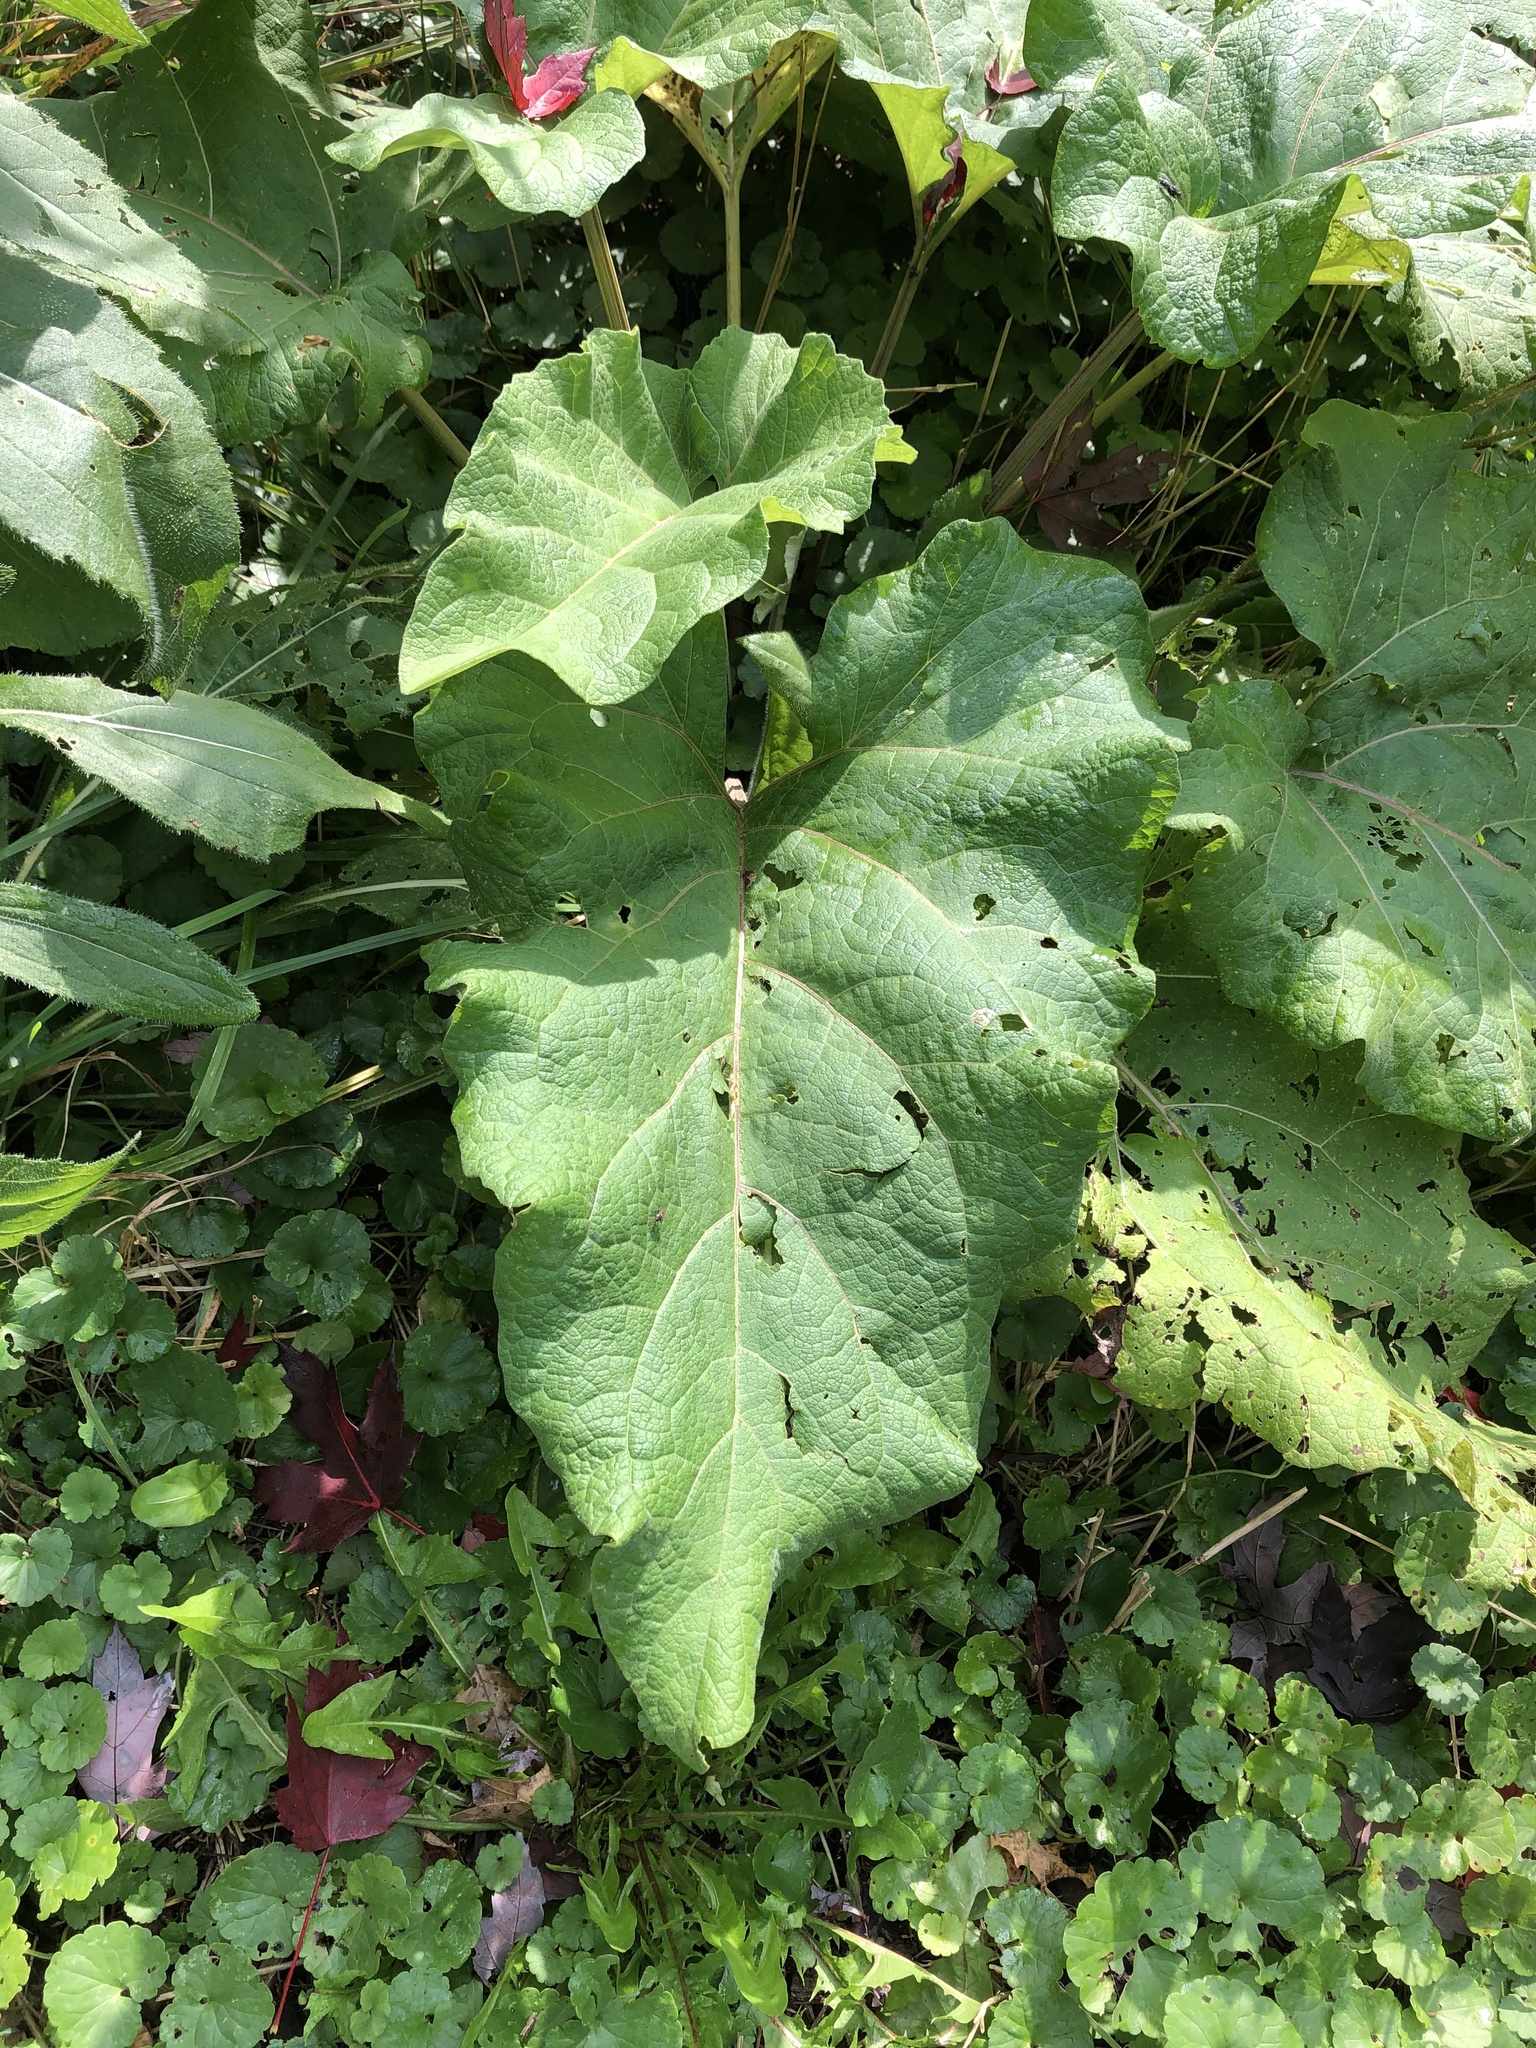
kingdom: Plantae
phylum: Tracheophyta
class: Magnoliopsida
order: Asterales
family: Asteraceae
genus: Arctium
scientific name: Arctium
